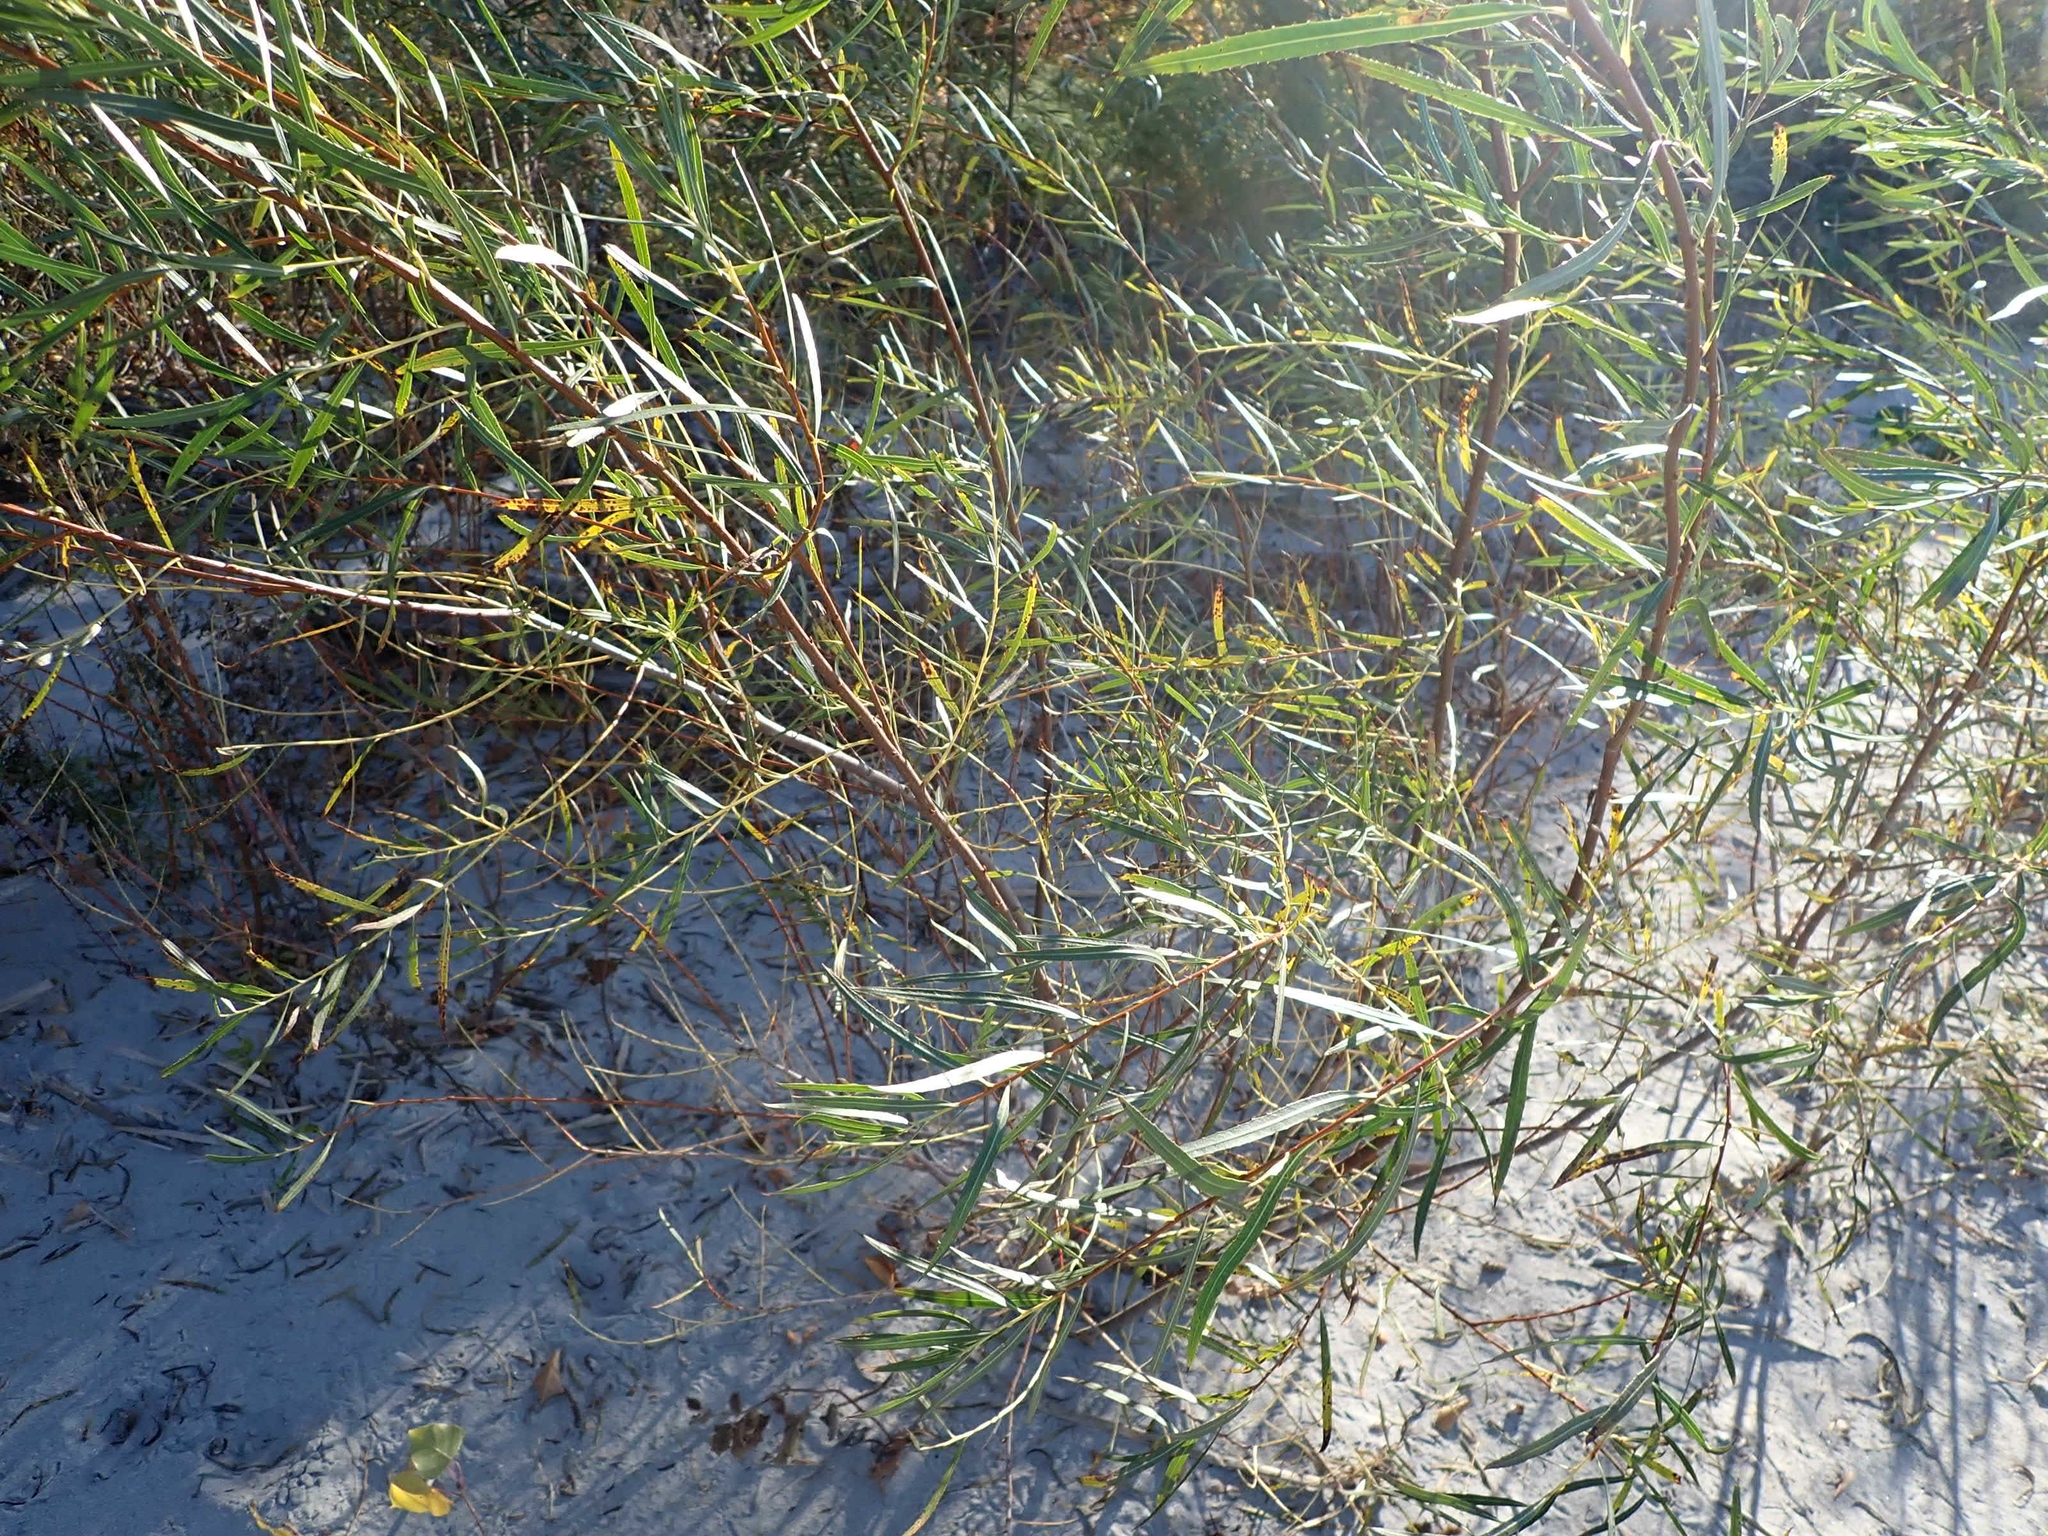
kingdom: Plantae
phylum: Tracheophyta
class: Magnoliopsida
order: Malpighiales
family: Salicaceae
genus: Salix
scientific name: Salix interior
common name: Sandbar willow
